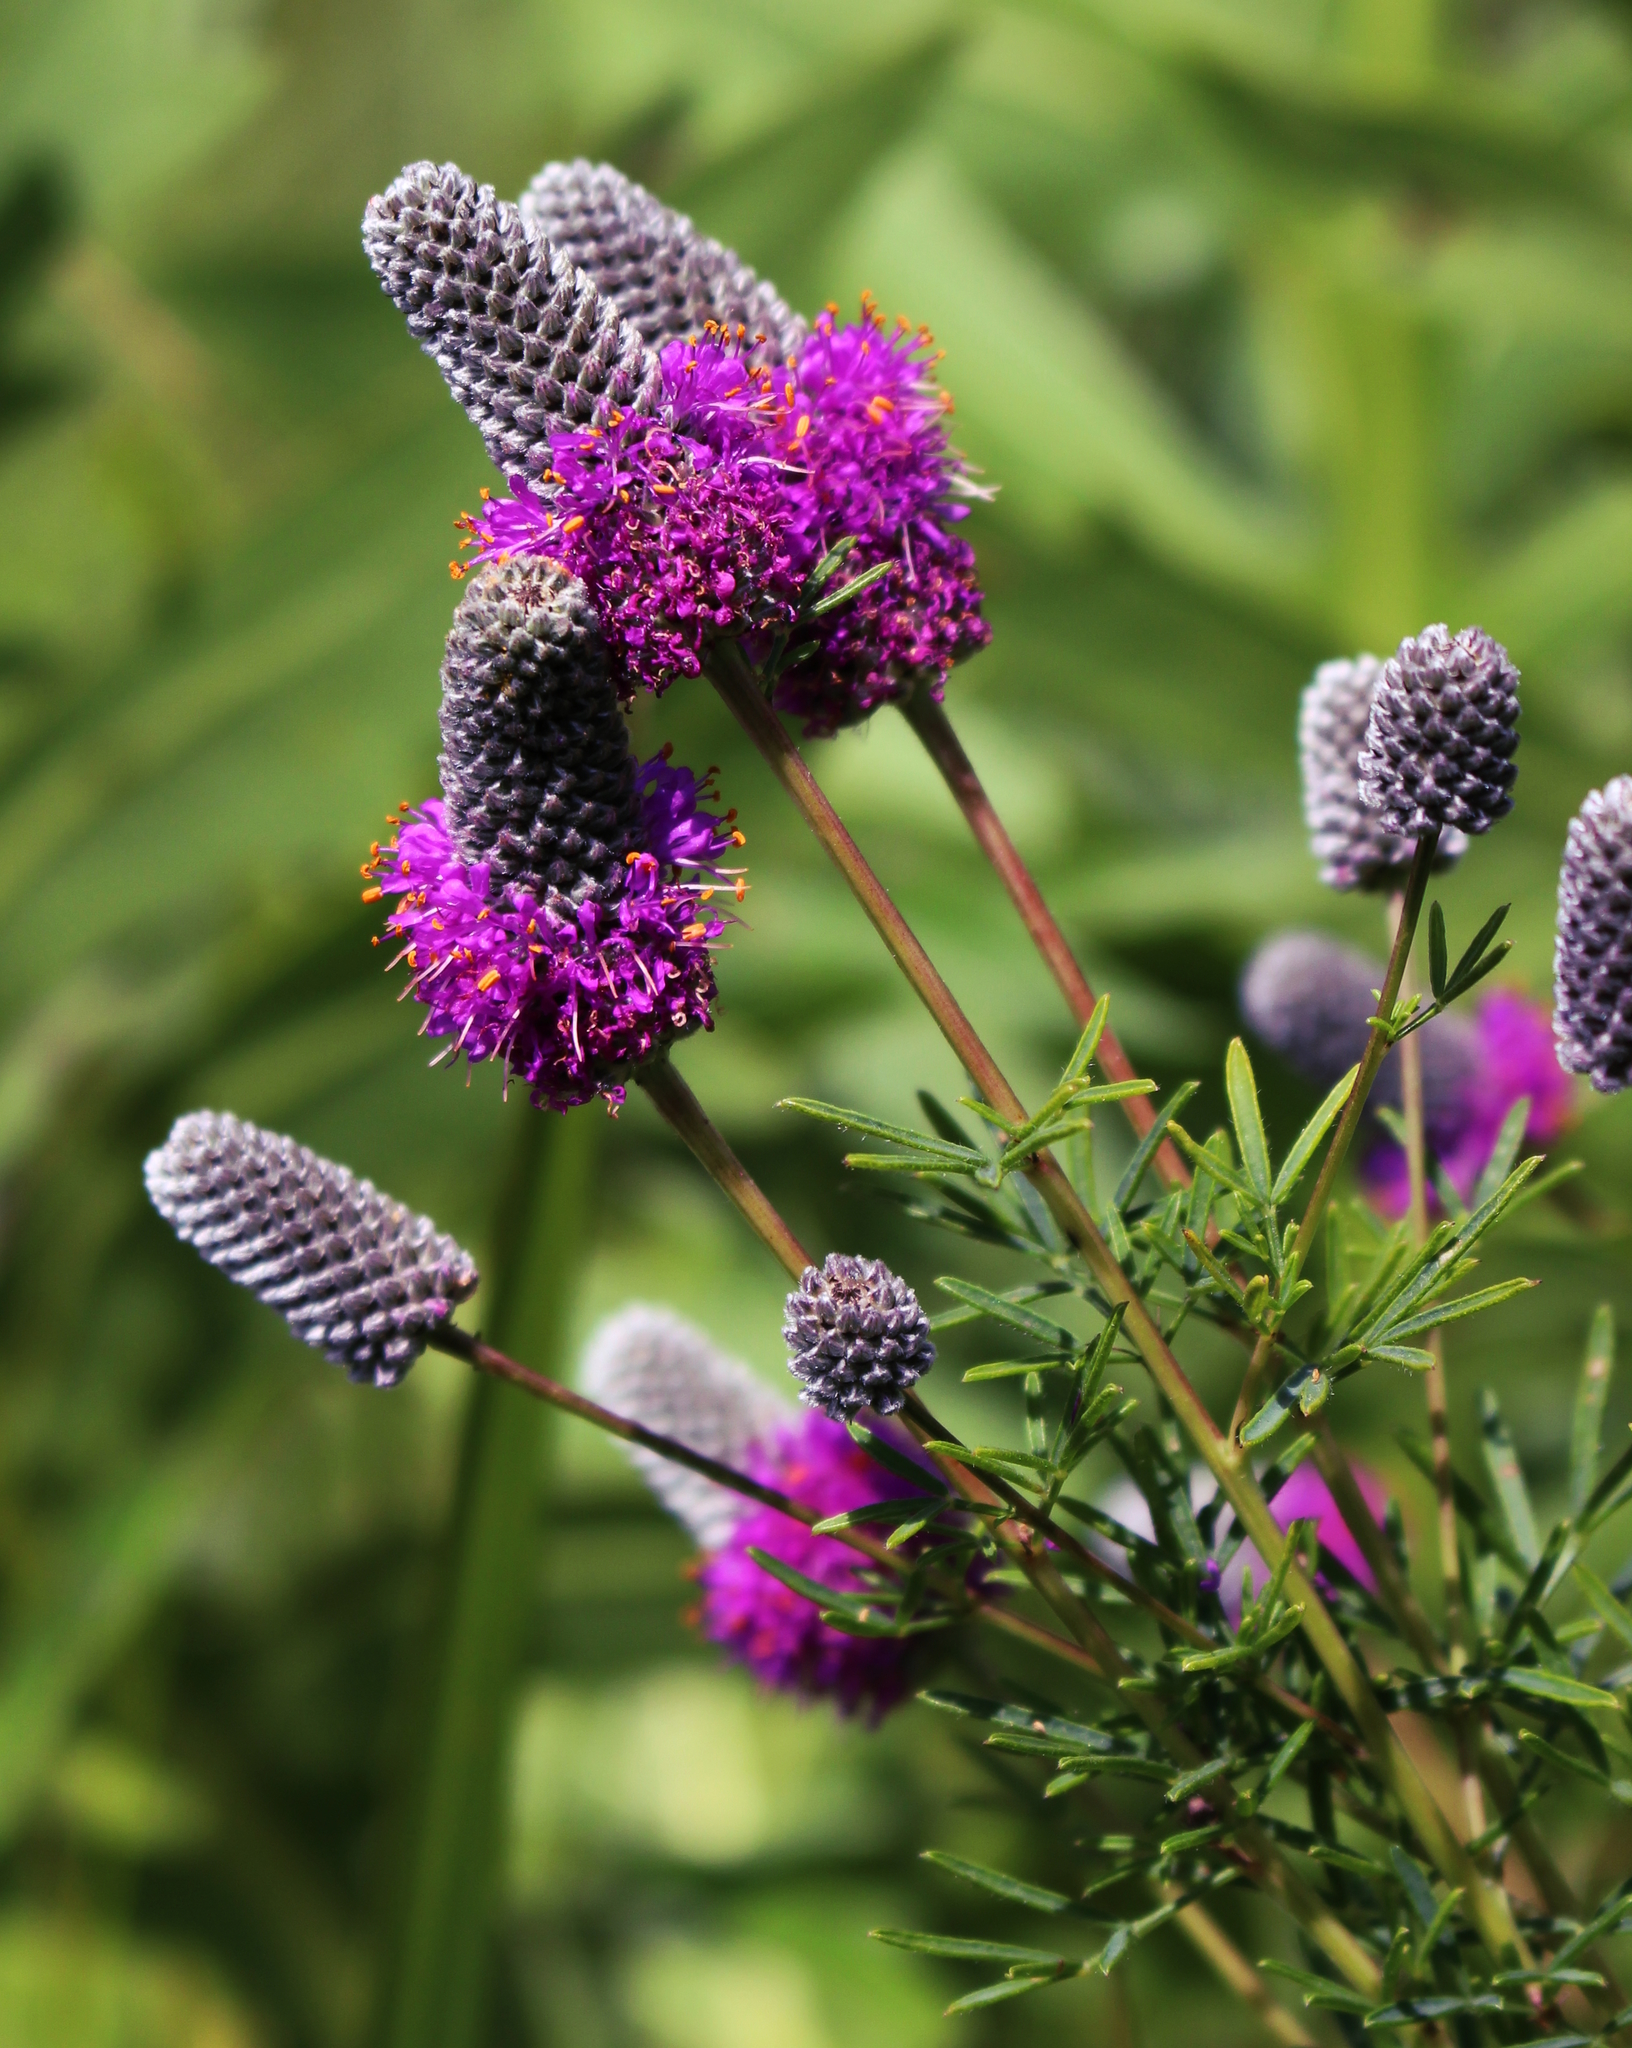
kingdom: Plantae
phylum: Tracheophyta
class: Magnoliopsida
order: Fabales
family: Fabaceae
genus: Dalea
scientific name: Dalea purpurea
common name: Purple prairie-clover
